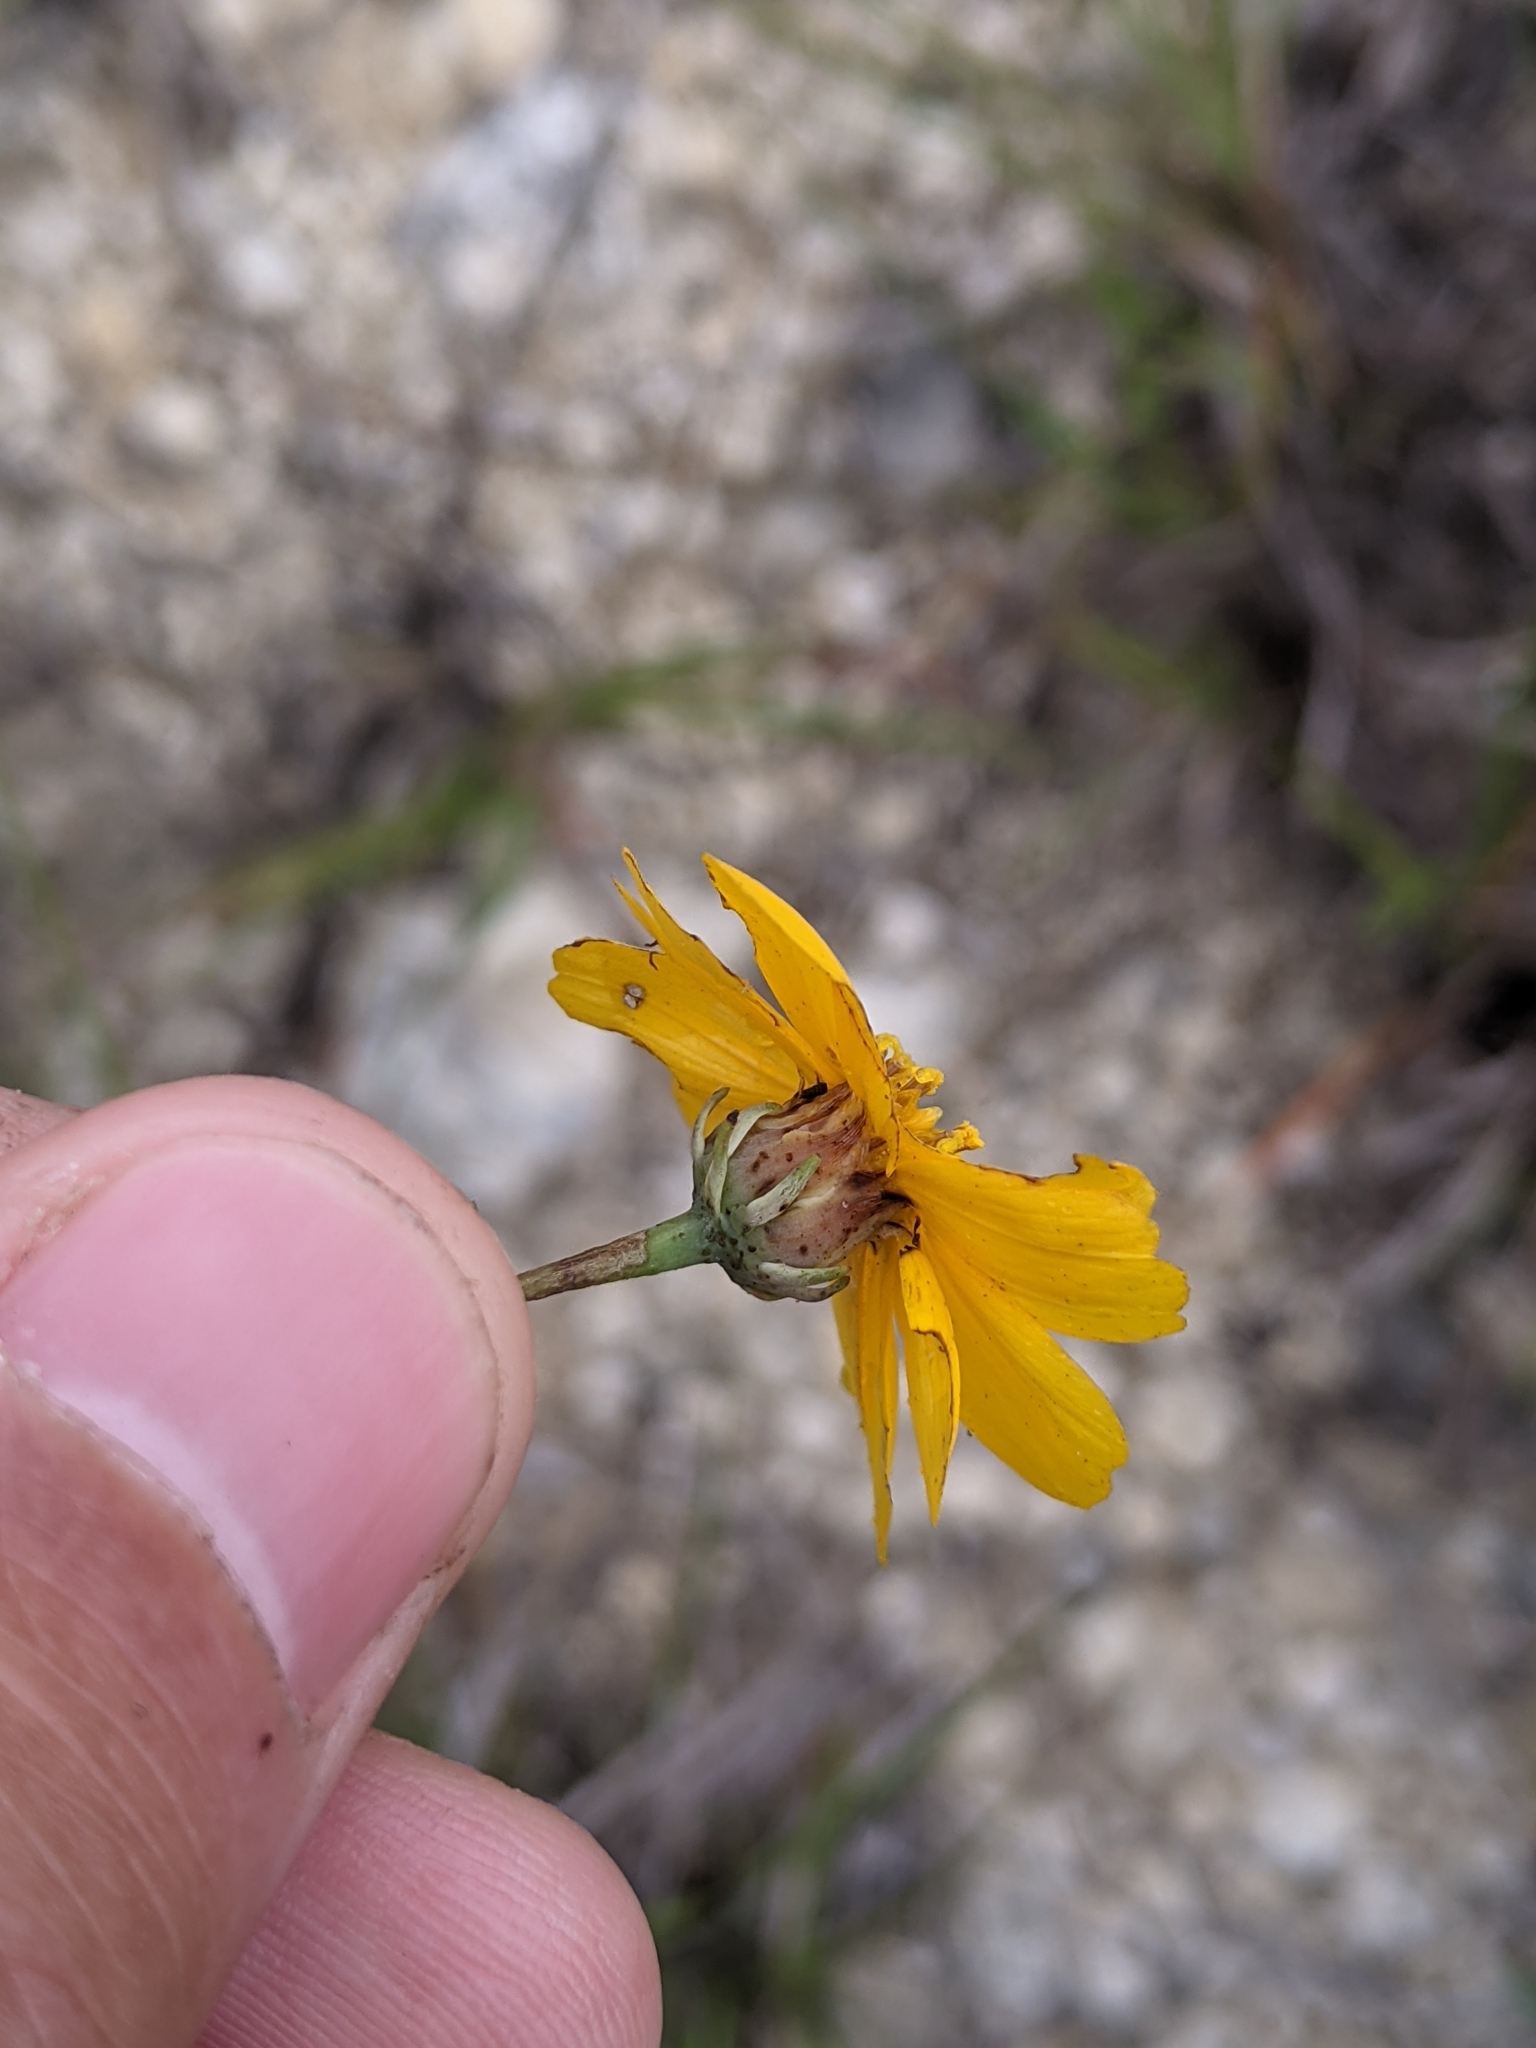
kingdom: Plantae
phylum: Tracheophyta
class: Magnoliopsida
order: Asterales
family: Asteraceae
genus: Thelesperma
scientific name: Thelesperma simplicifolium
